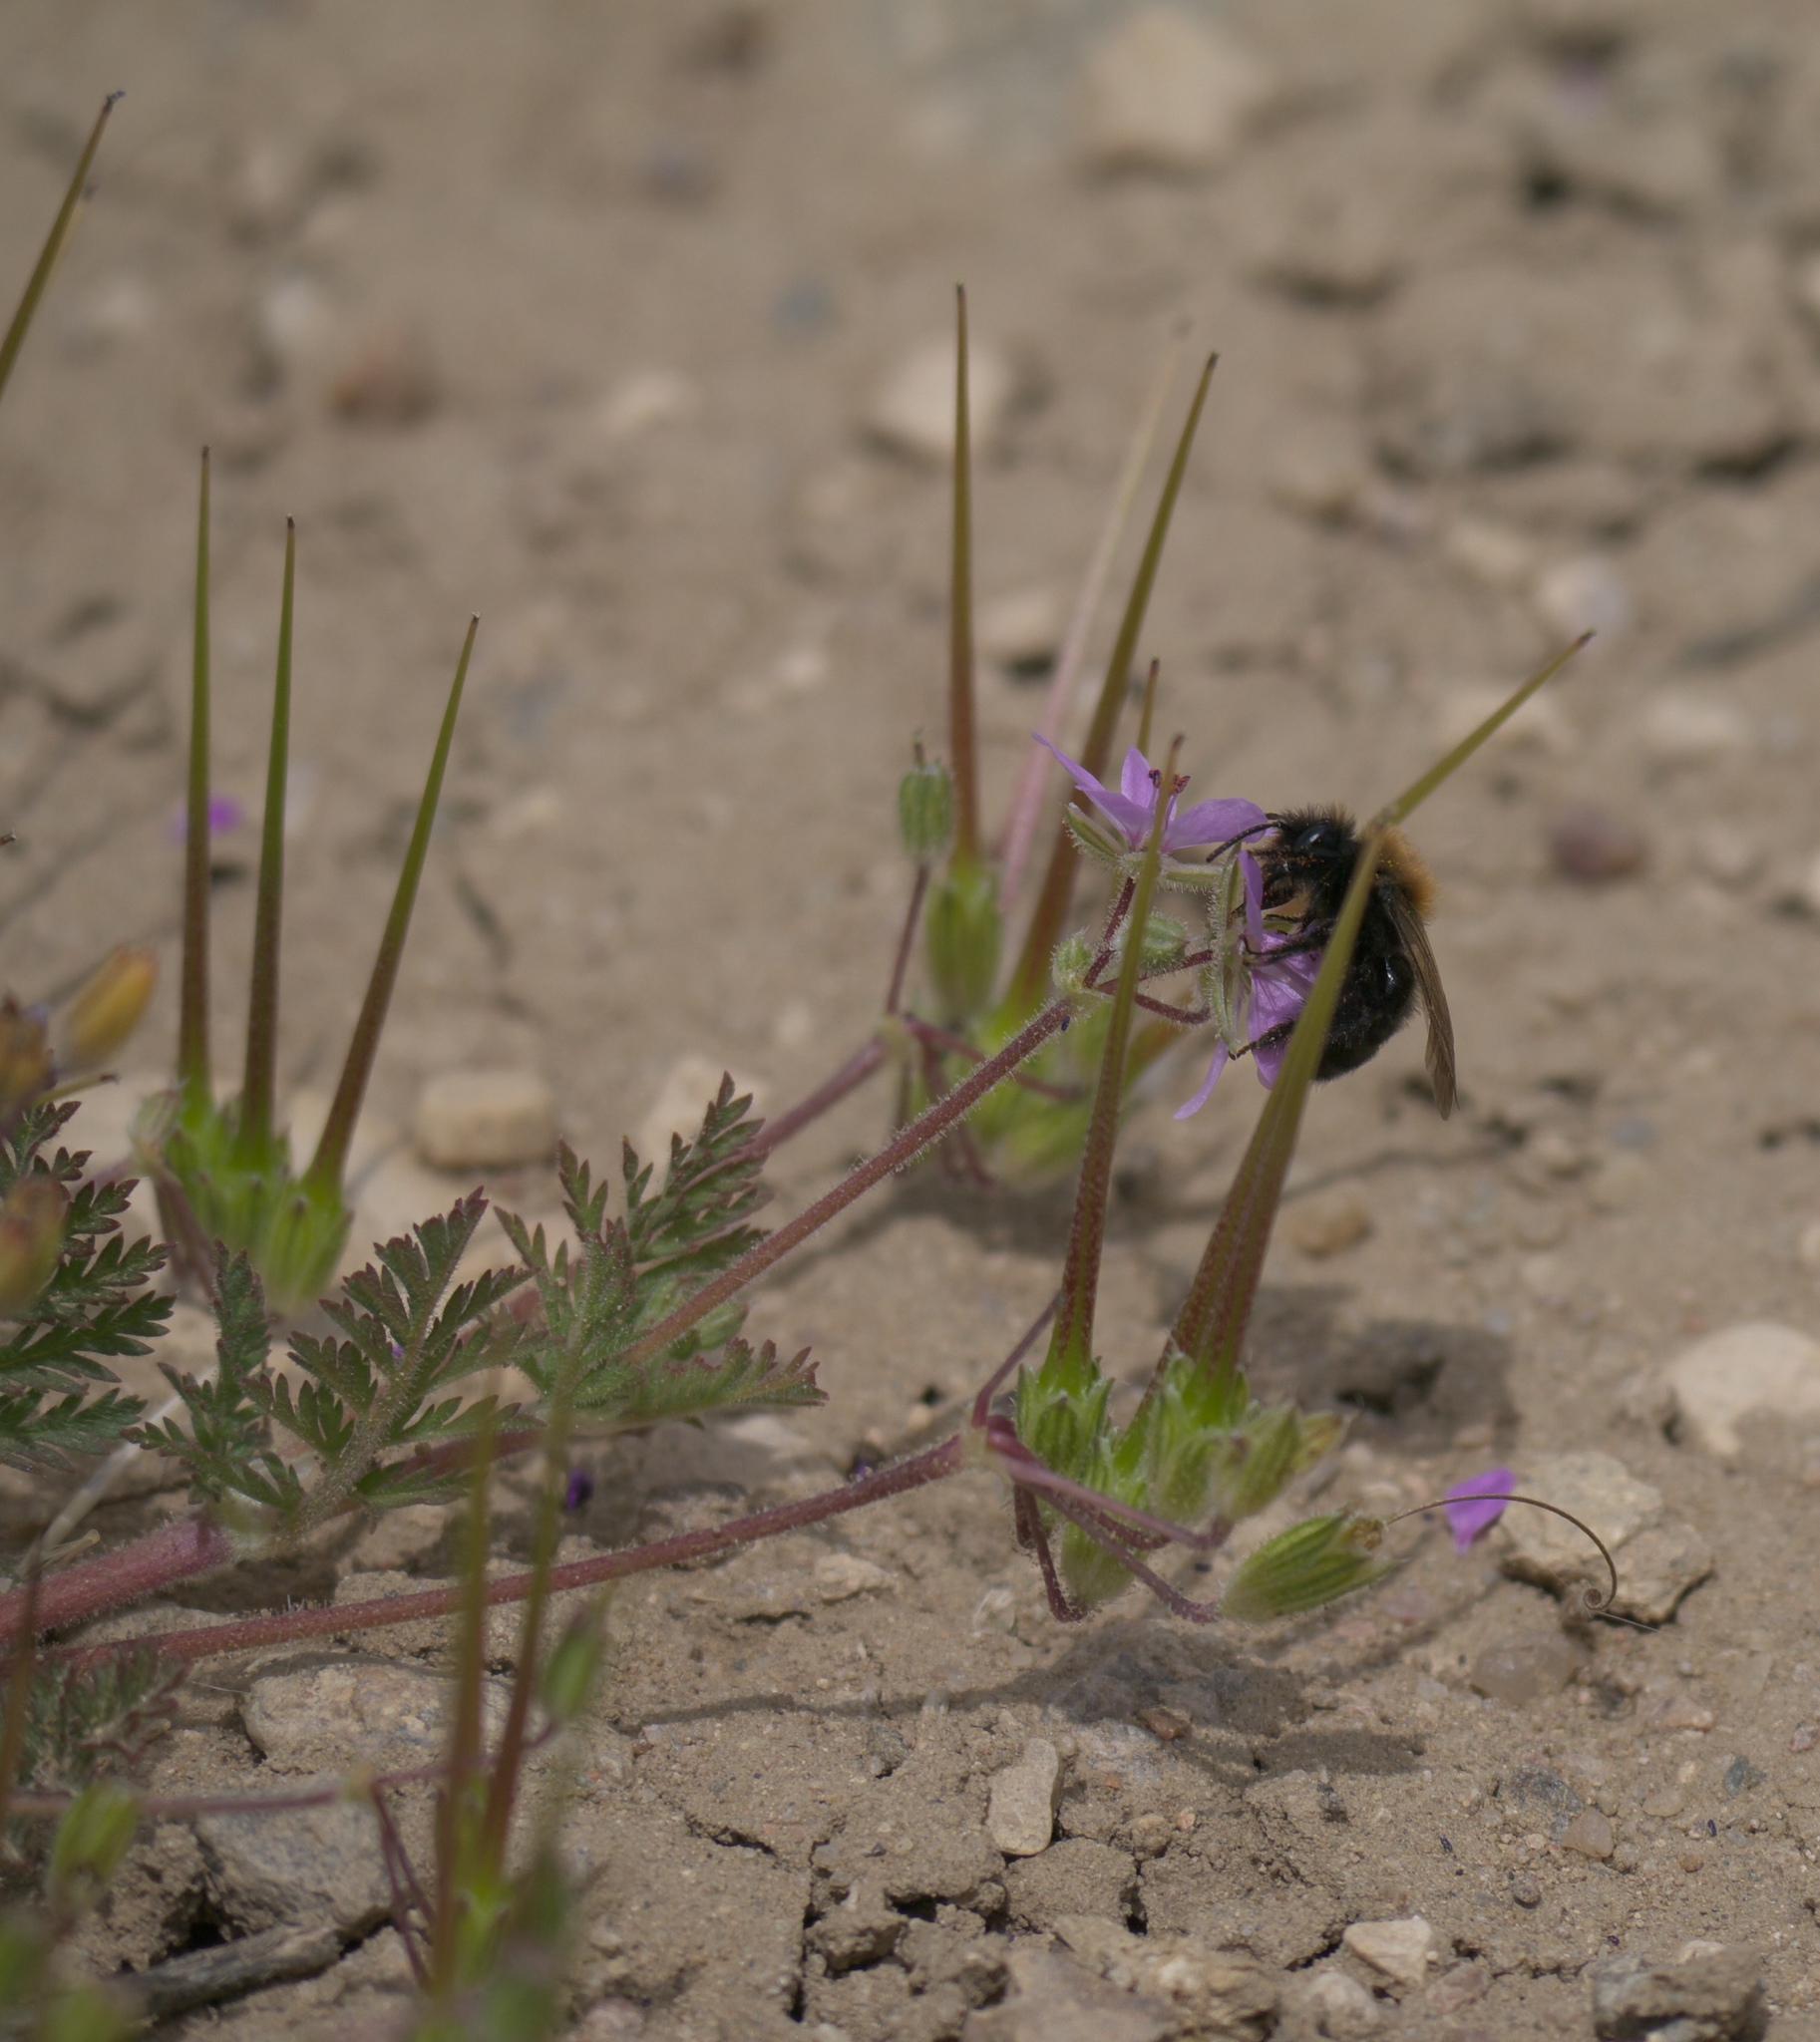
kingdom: Plantae
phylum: Tracheophyta
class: Magnoliopsida
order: Geraniales
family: Geraniaceae
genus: Erodium
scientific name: Erodium cicutarium
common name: Common stork's-bill
